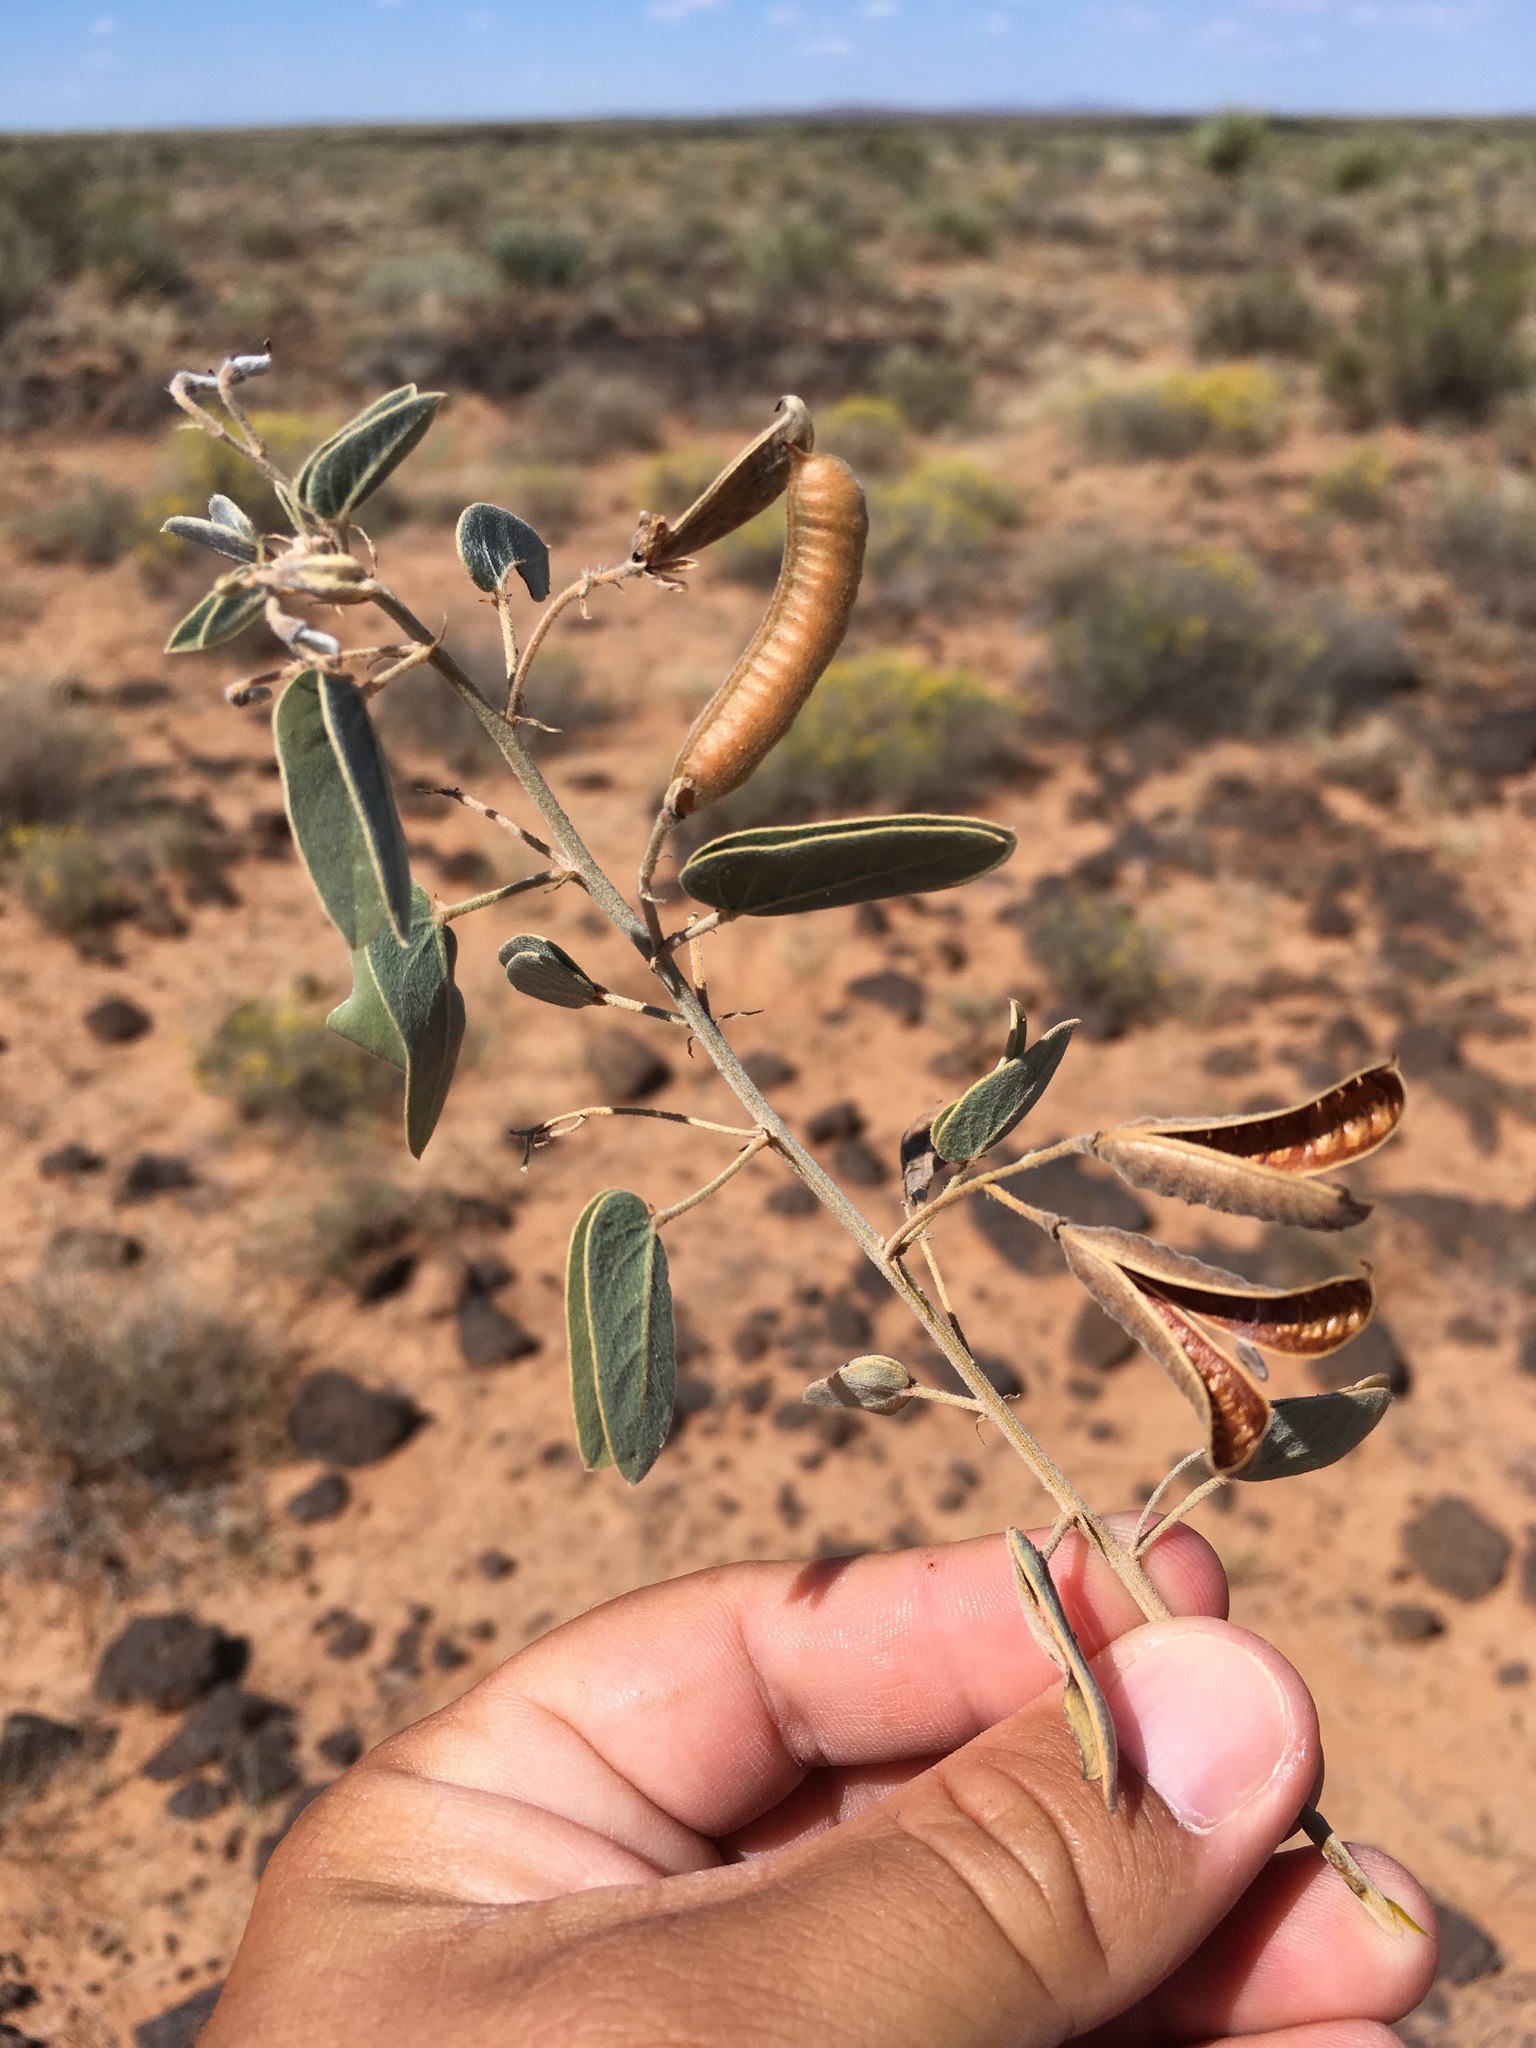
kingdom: Plantae
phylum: Tracheophyta
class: Magnoliopsida
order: Fabales
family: Fabaceae
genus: Senna
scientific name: Senna bauhinioides
